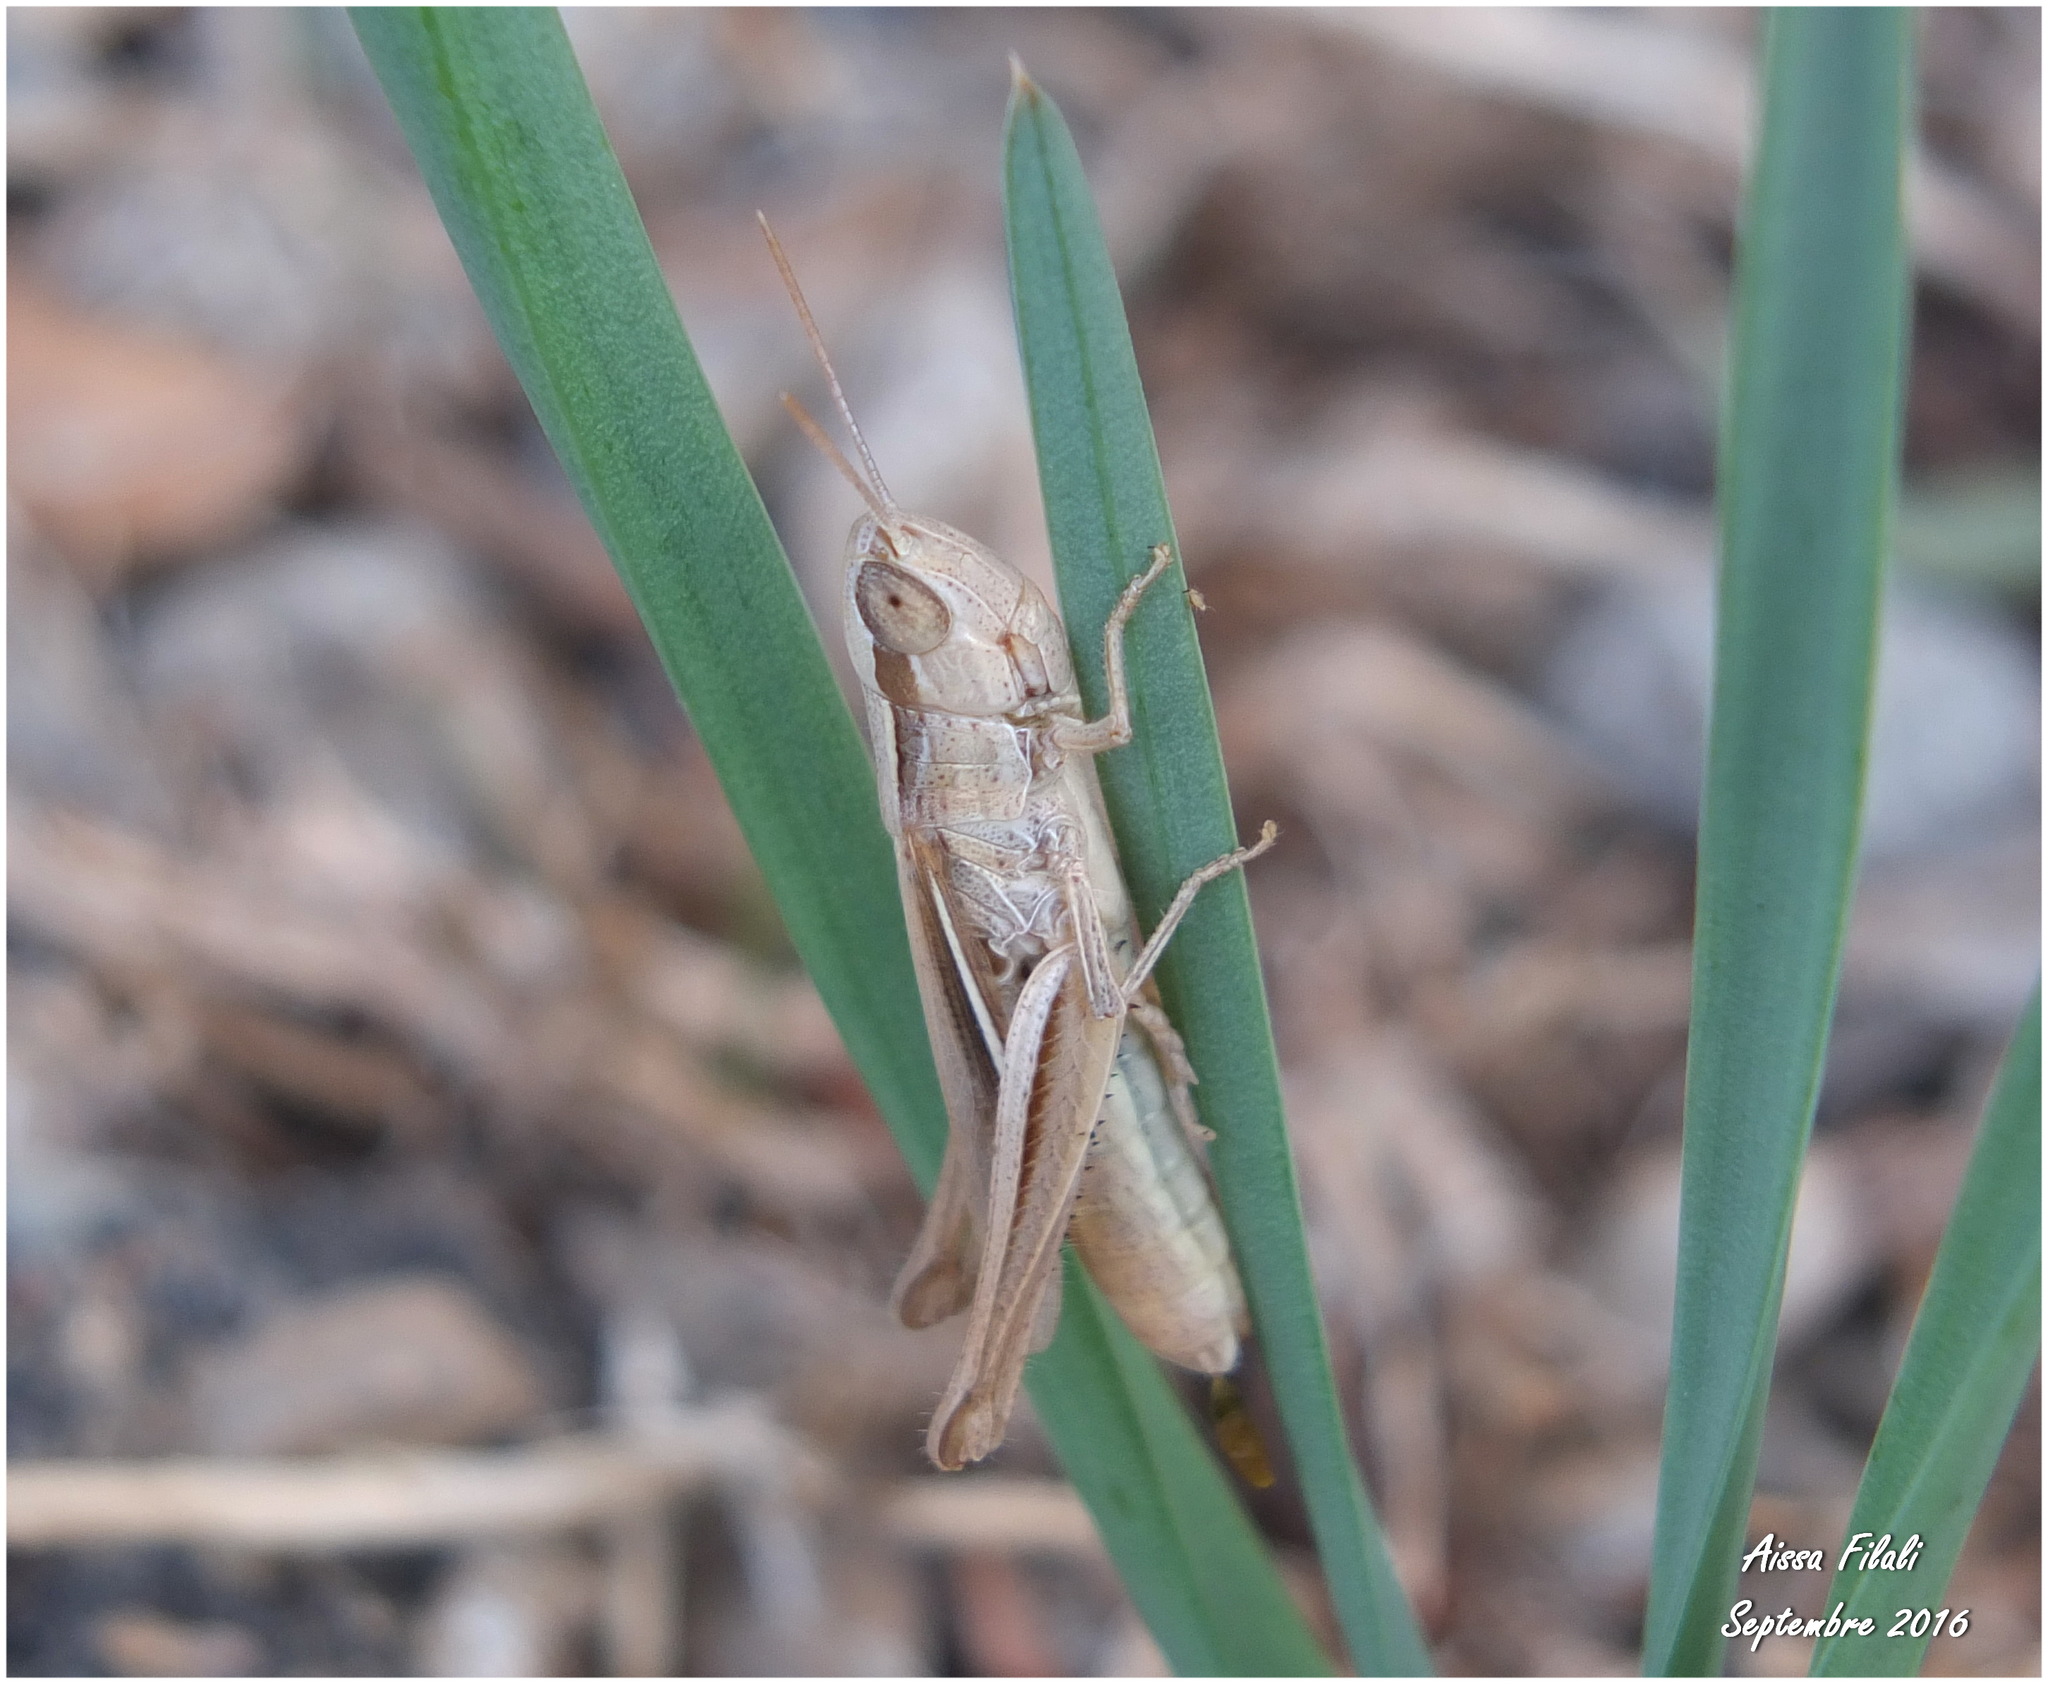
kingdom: Animalia
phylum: Arthropoda
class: Insecta
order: Orthoptera
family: Acrididae
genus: Euchorthippus
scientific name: Euchorthippus albolineatus
